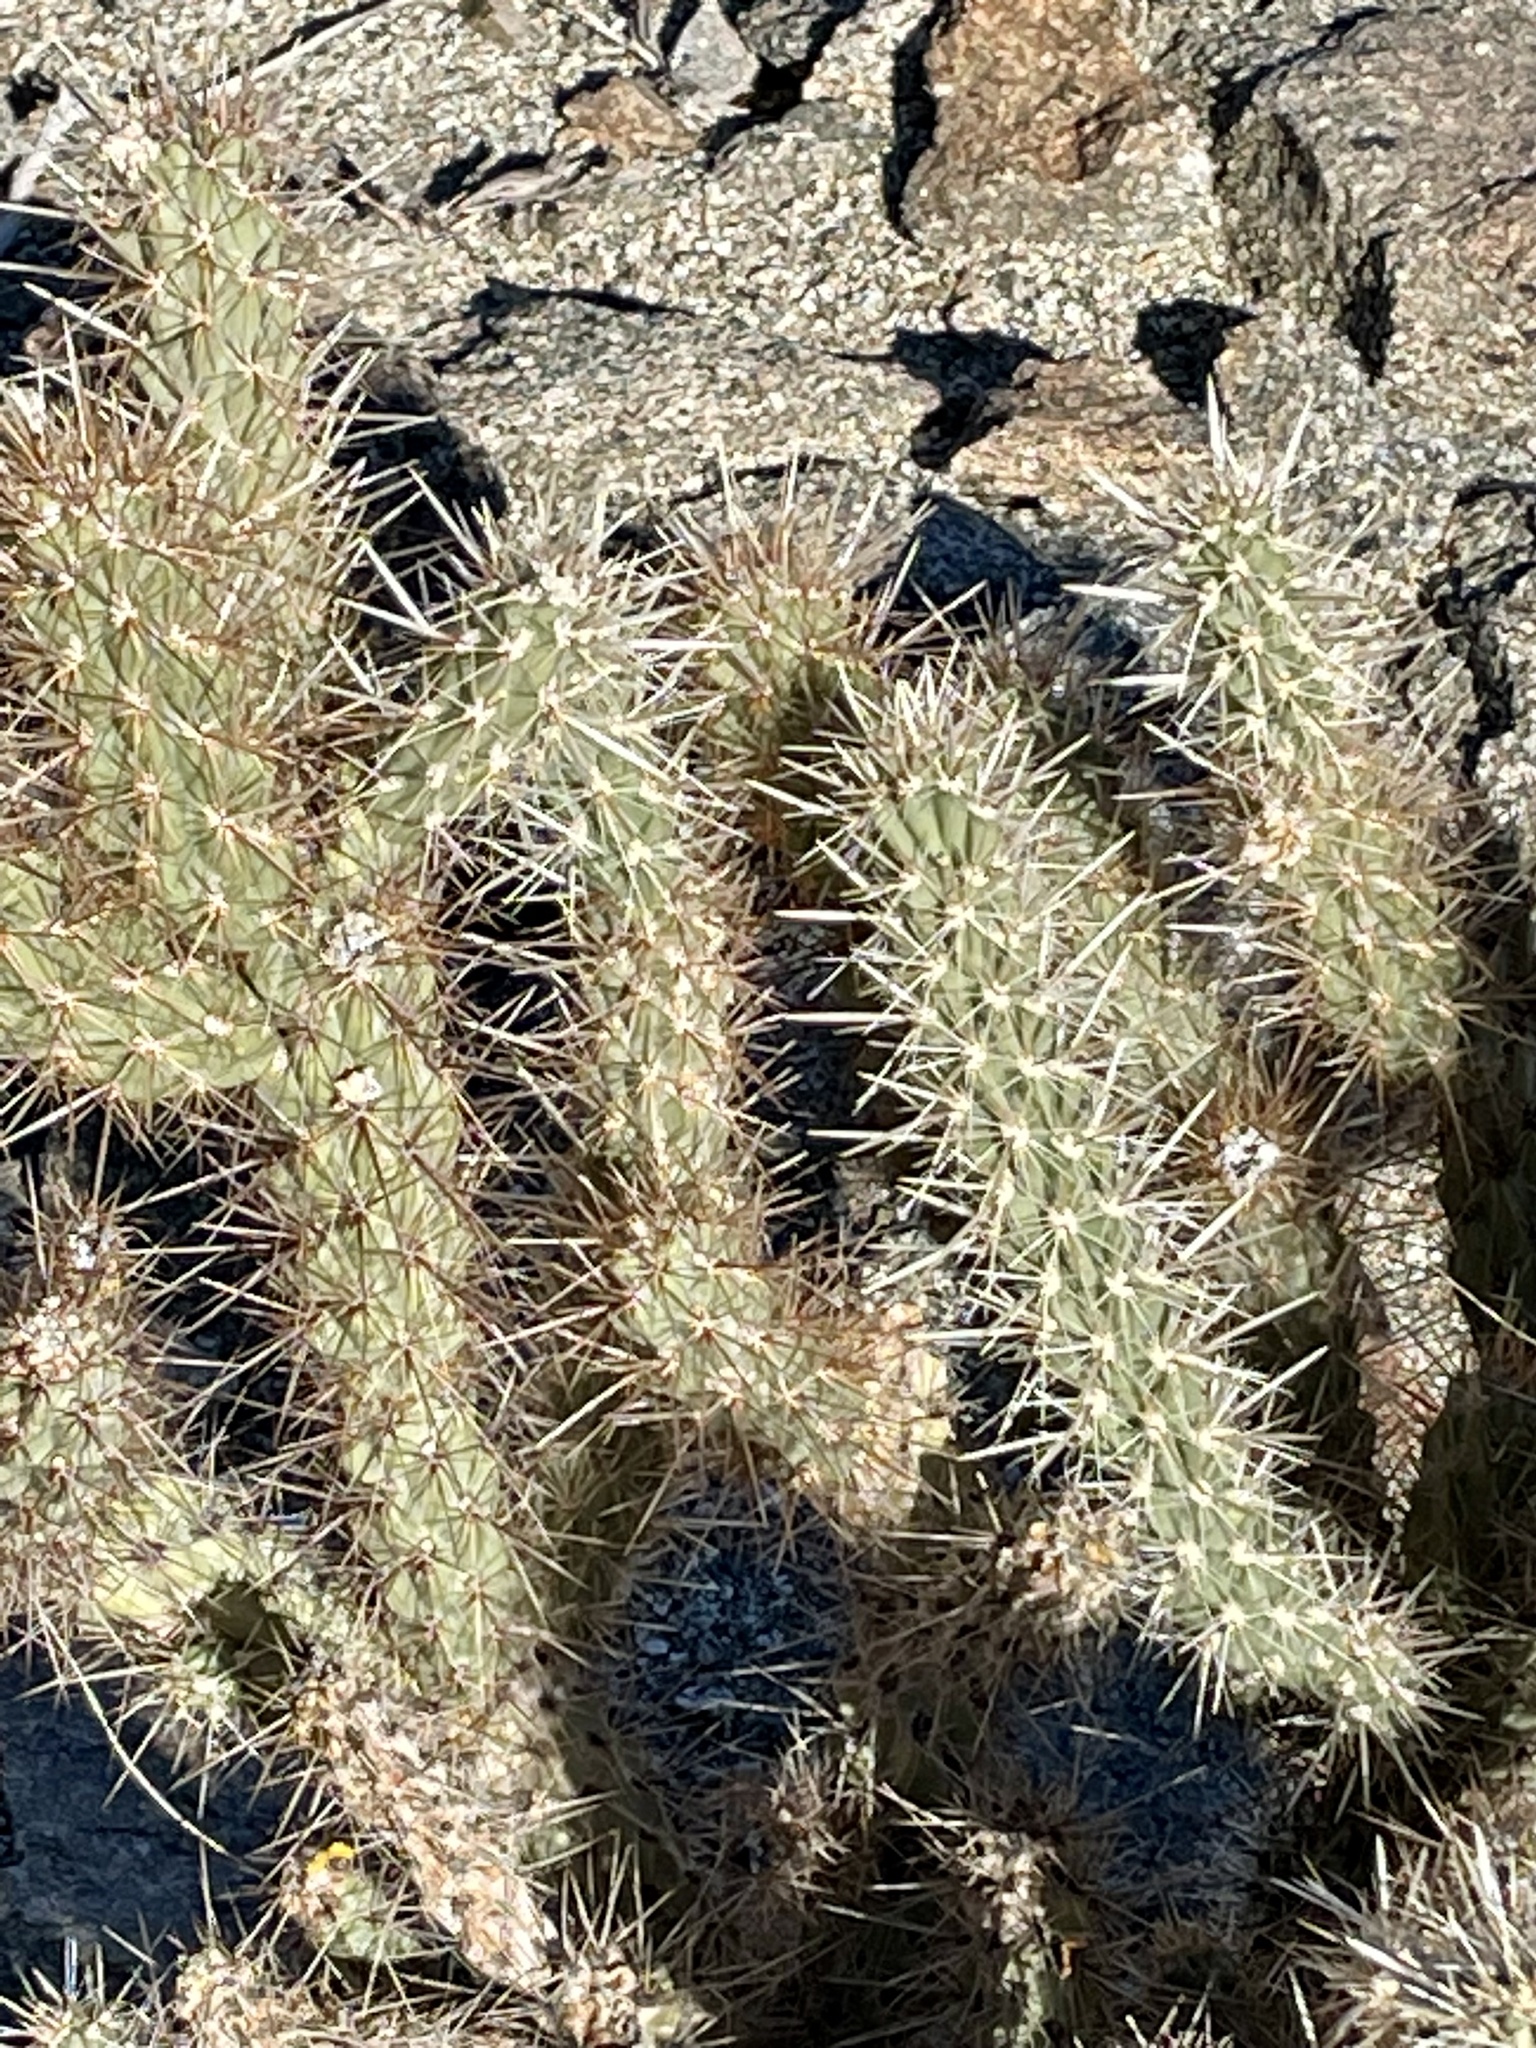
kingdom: Plantae
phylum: Tracheophyta
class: Magnoliopsida
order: Caryophyllales
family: Cactaceae
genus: Cylindropuntia
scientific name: Cylindropuntia ganderi
